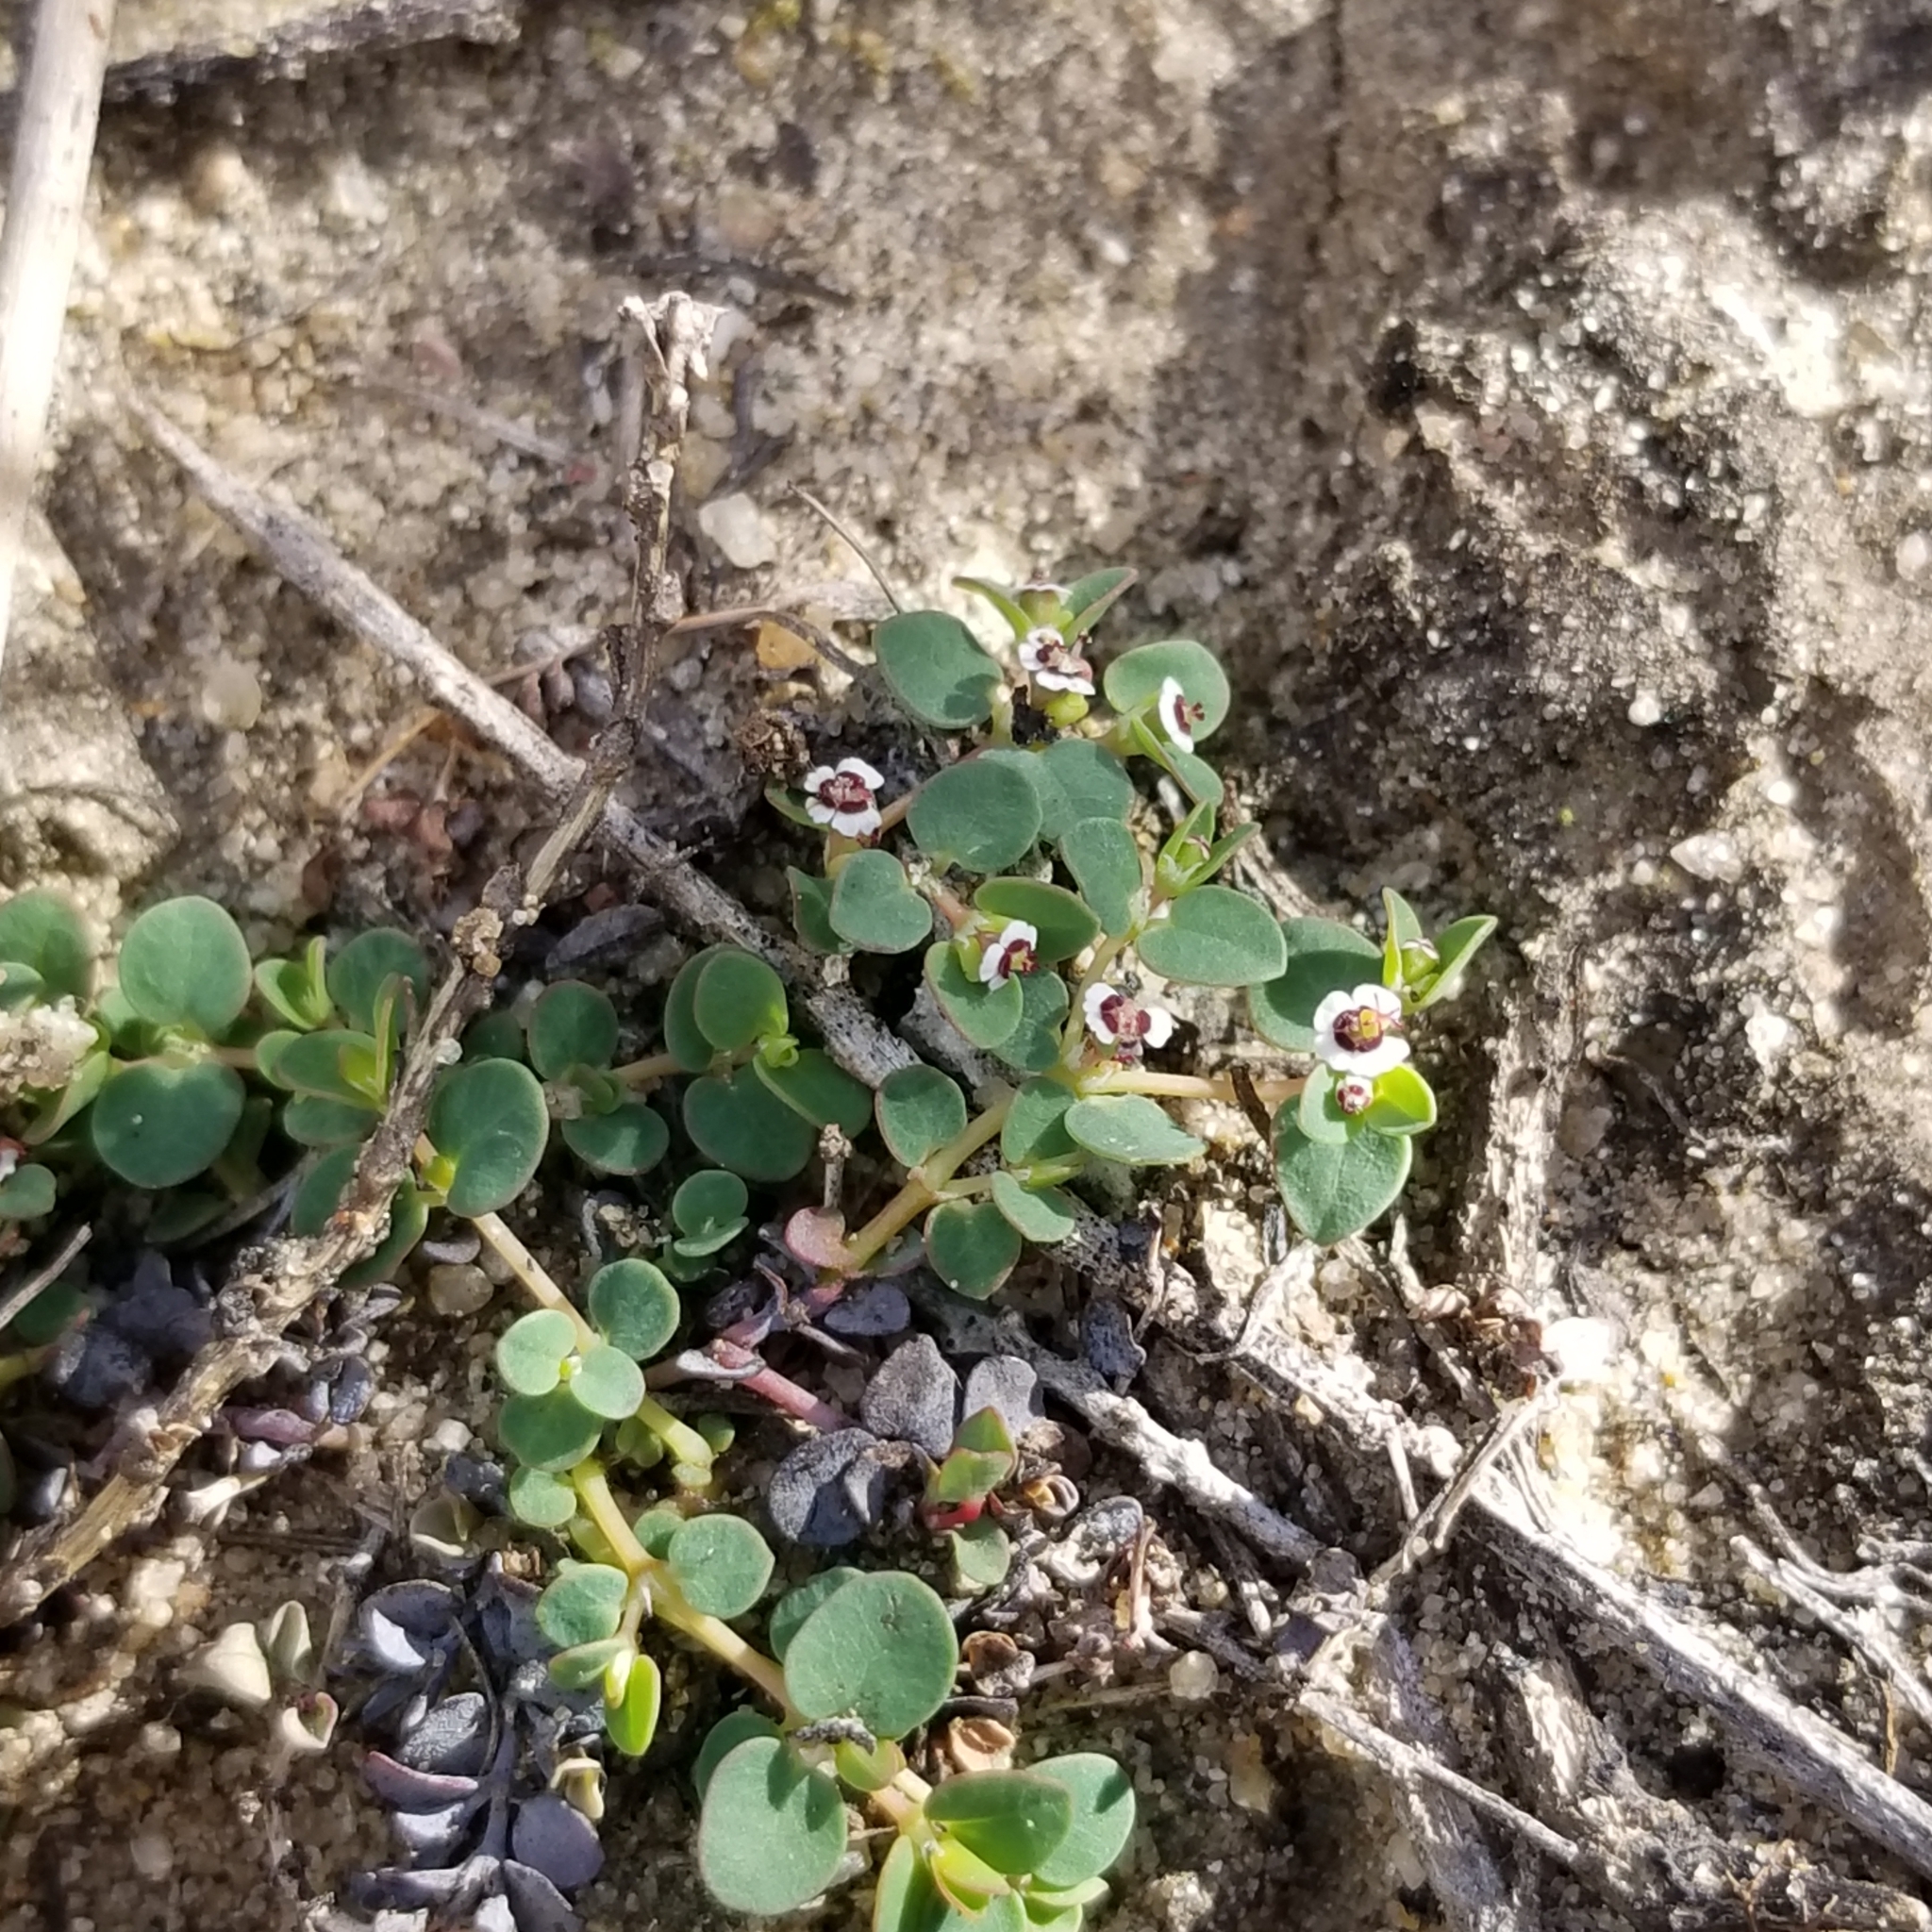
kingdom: Plantae
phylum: Tracheophyta
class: Magnoliopsida
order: Malpighiales
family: Euphorbiaceae
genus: Euphorbia
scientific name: Euphorbia polycarpa
